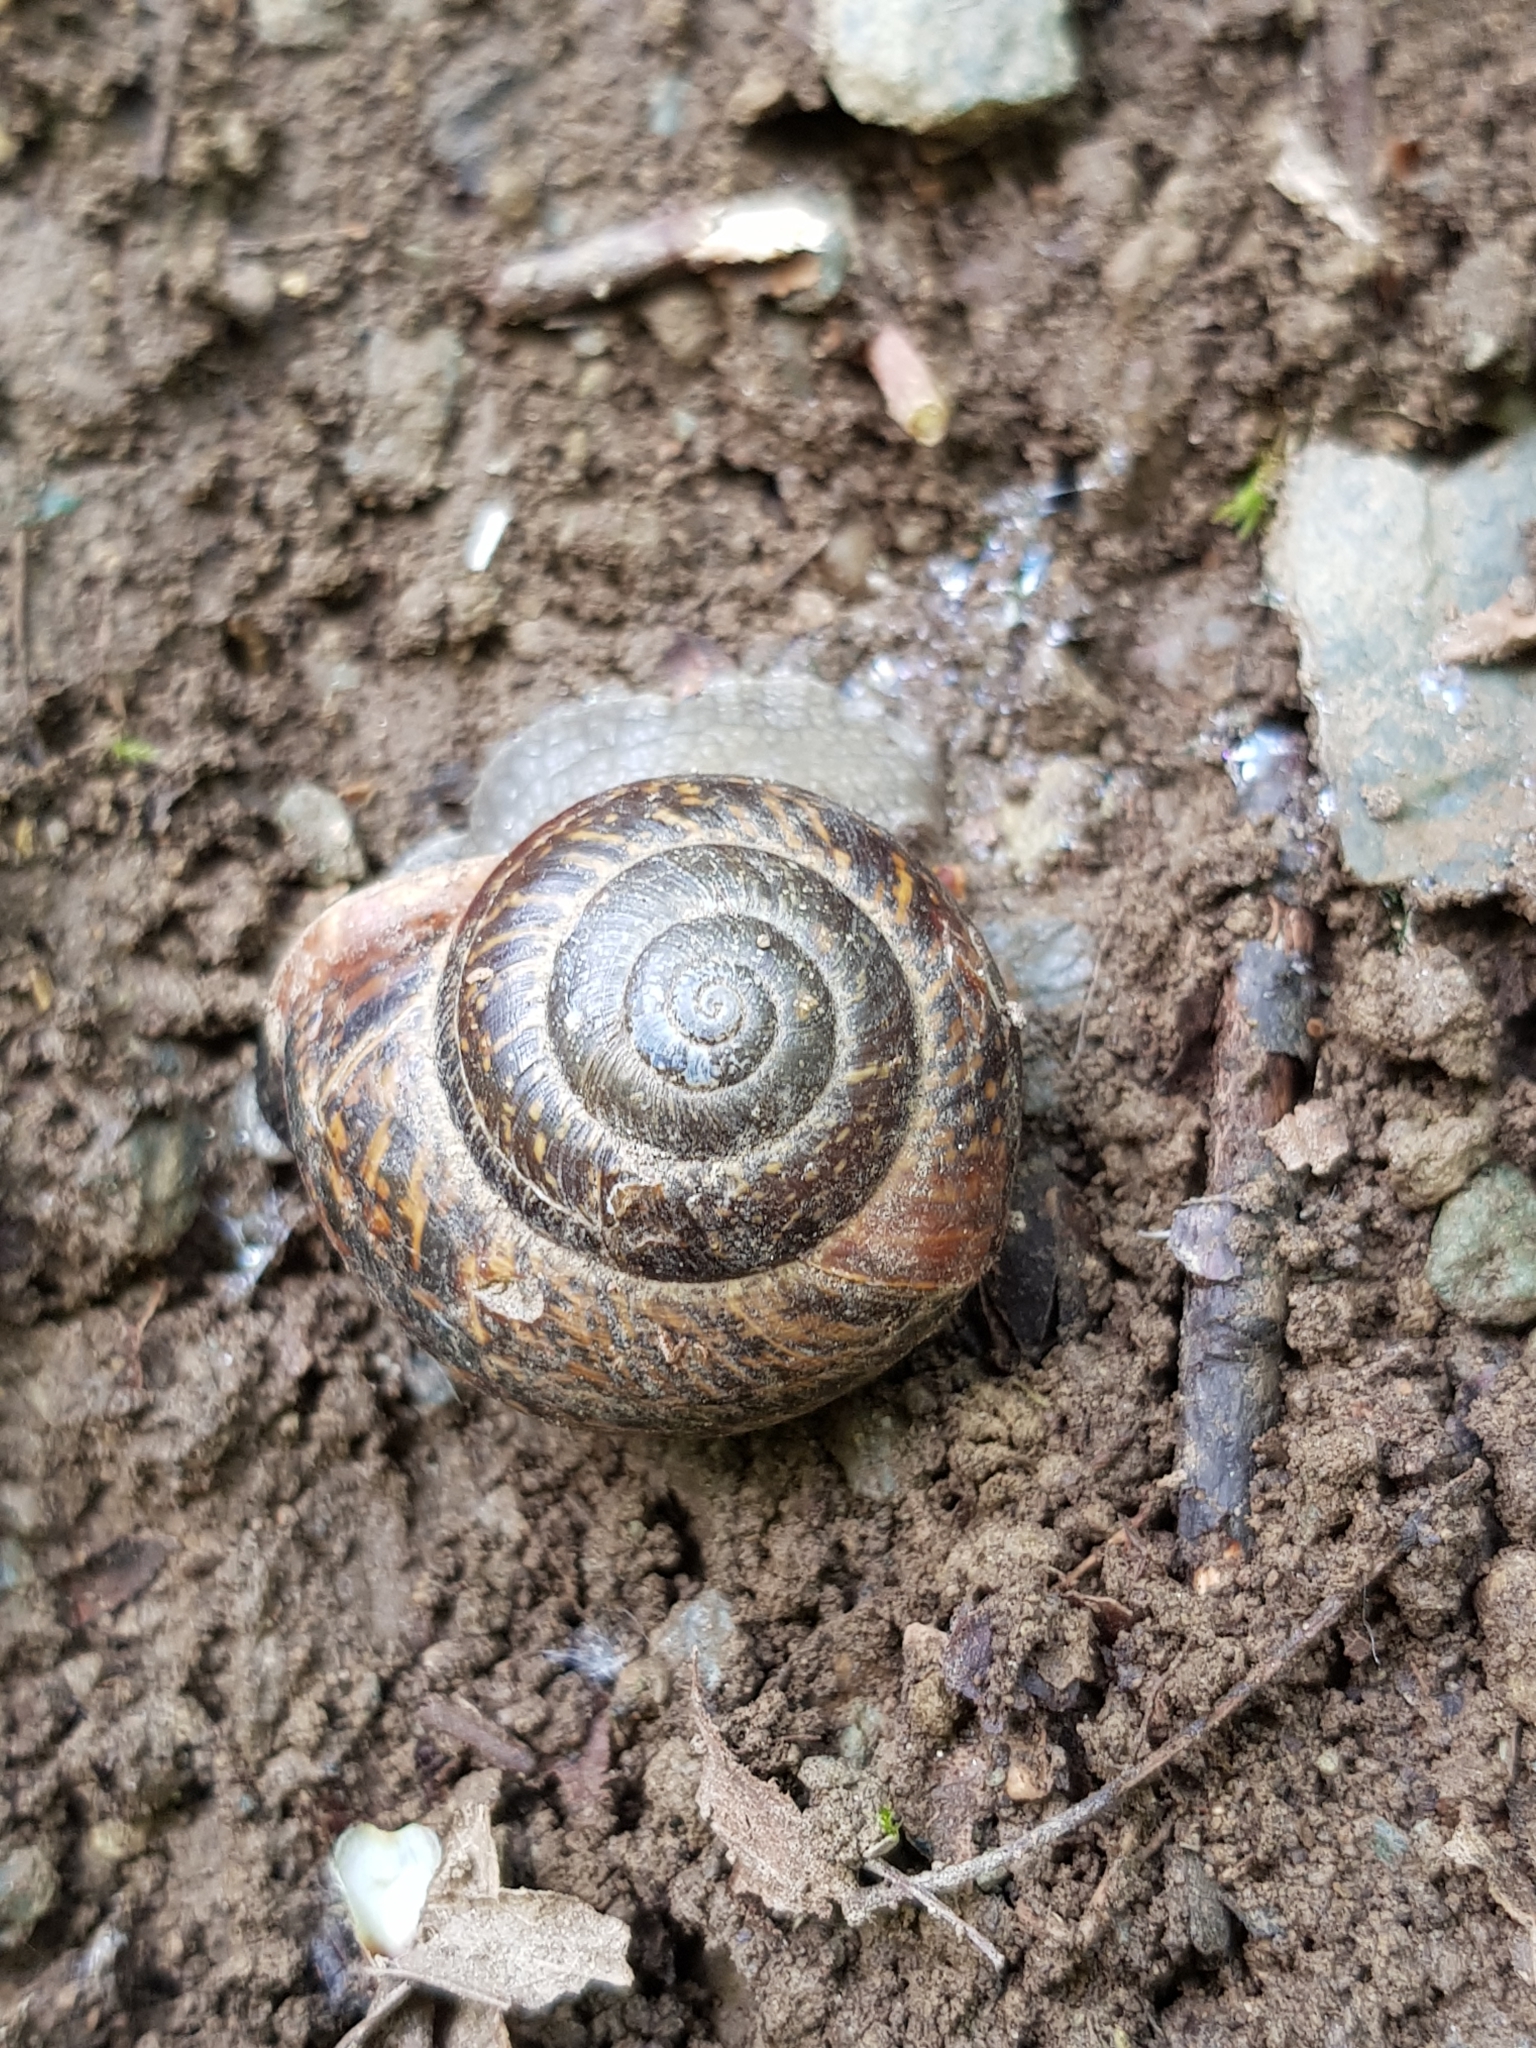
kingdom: Animalia
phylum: Mollusca
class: Gastropoda
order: Stylommatophora
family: Helicidae
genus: Arianta
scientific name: Arianta arbustorum
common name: Copse snail
